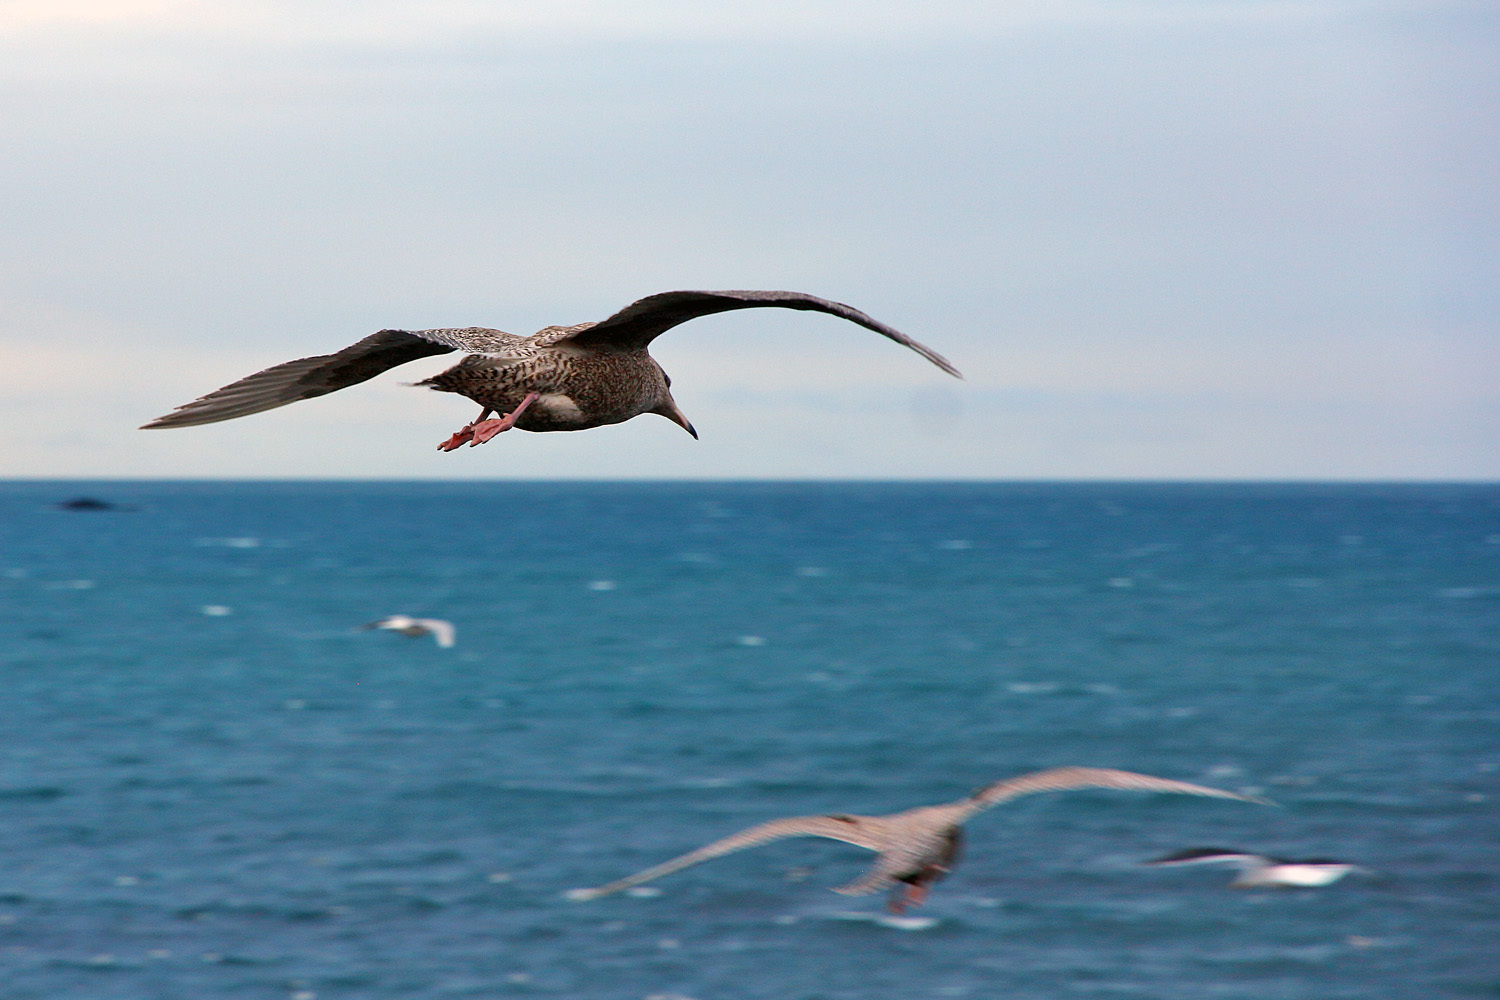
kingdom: Animalia
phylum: Chordata
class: Aves
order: Charadriiformes
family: Laridae
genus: Larus
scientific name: Larus hyperboreus
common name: Glaucous gull
